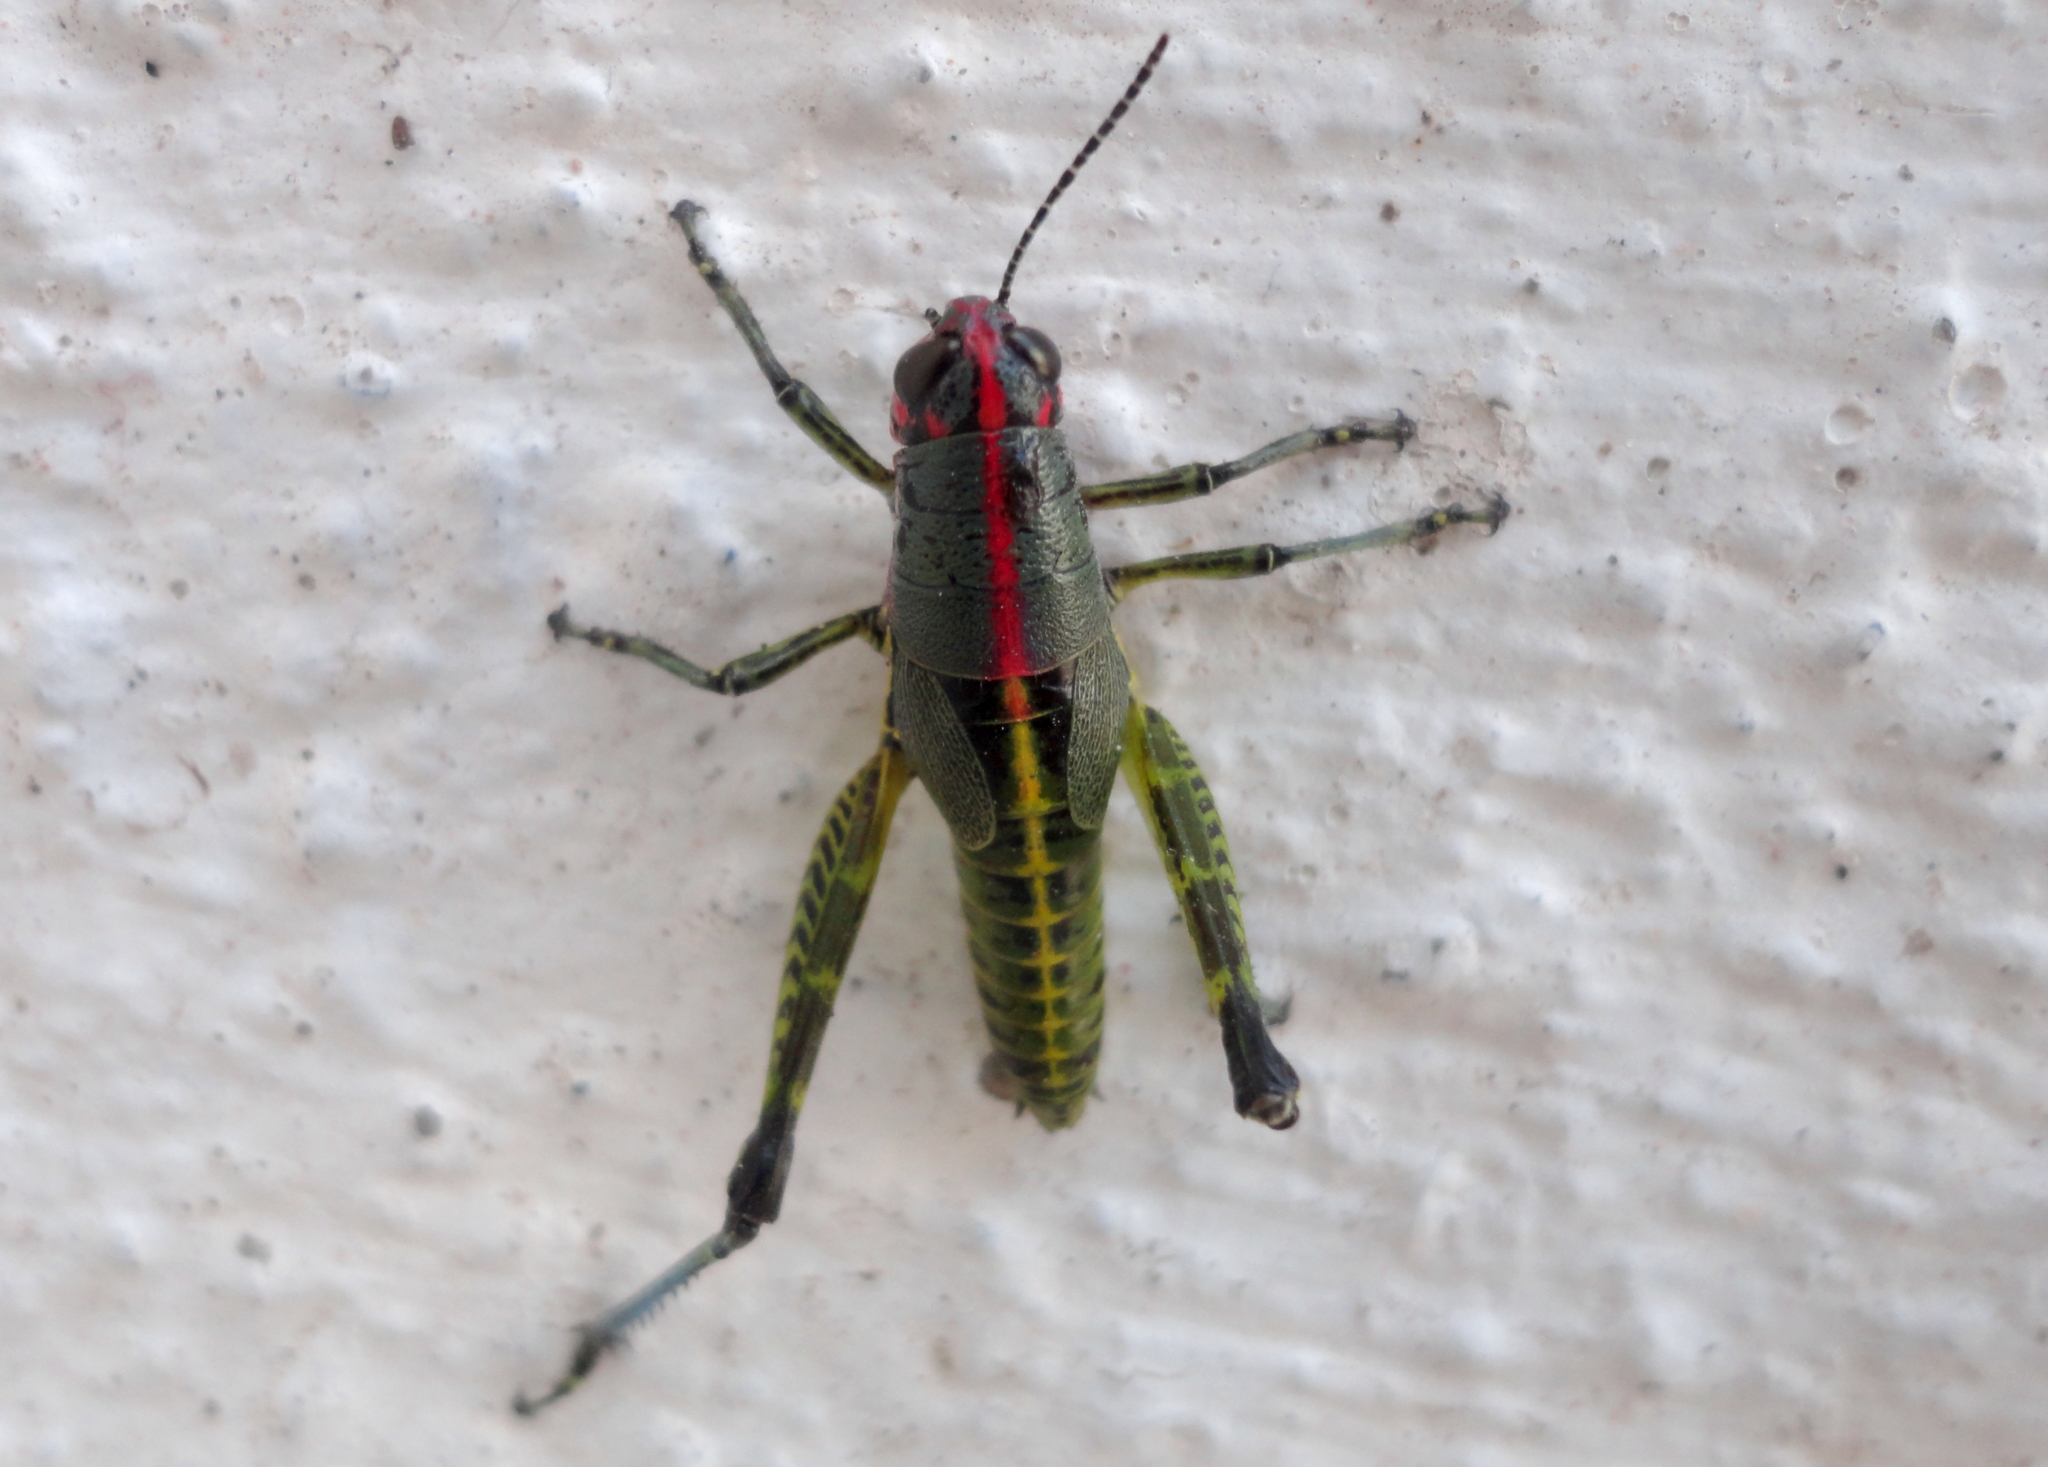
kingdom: Animalia
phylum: Arthropoda
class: Insecta
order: Orthoptera
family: Acrididae
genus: Aztecacris
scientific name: Aztecacris laevis
